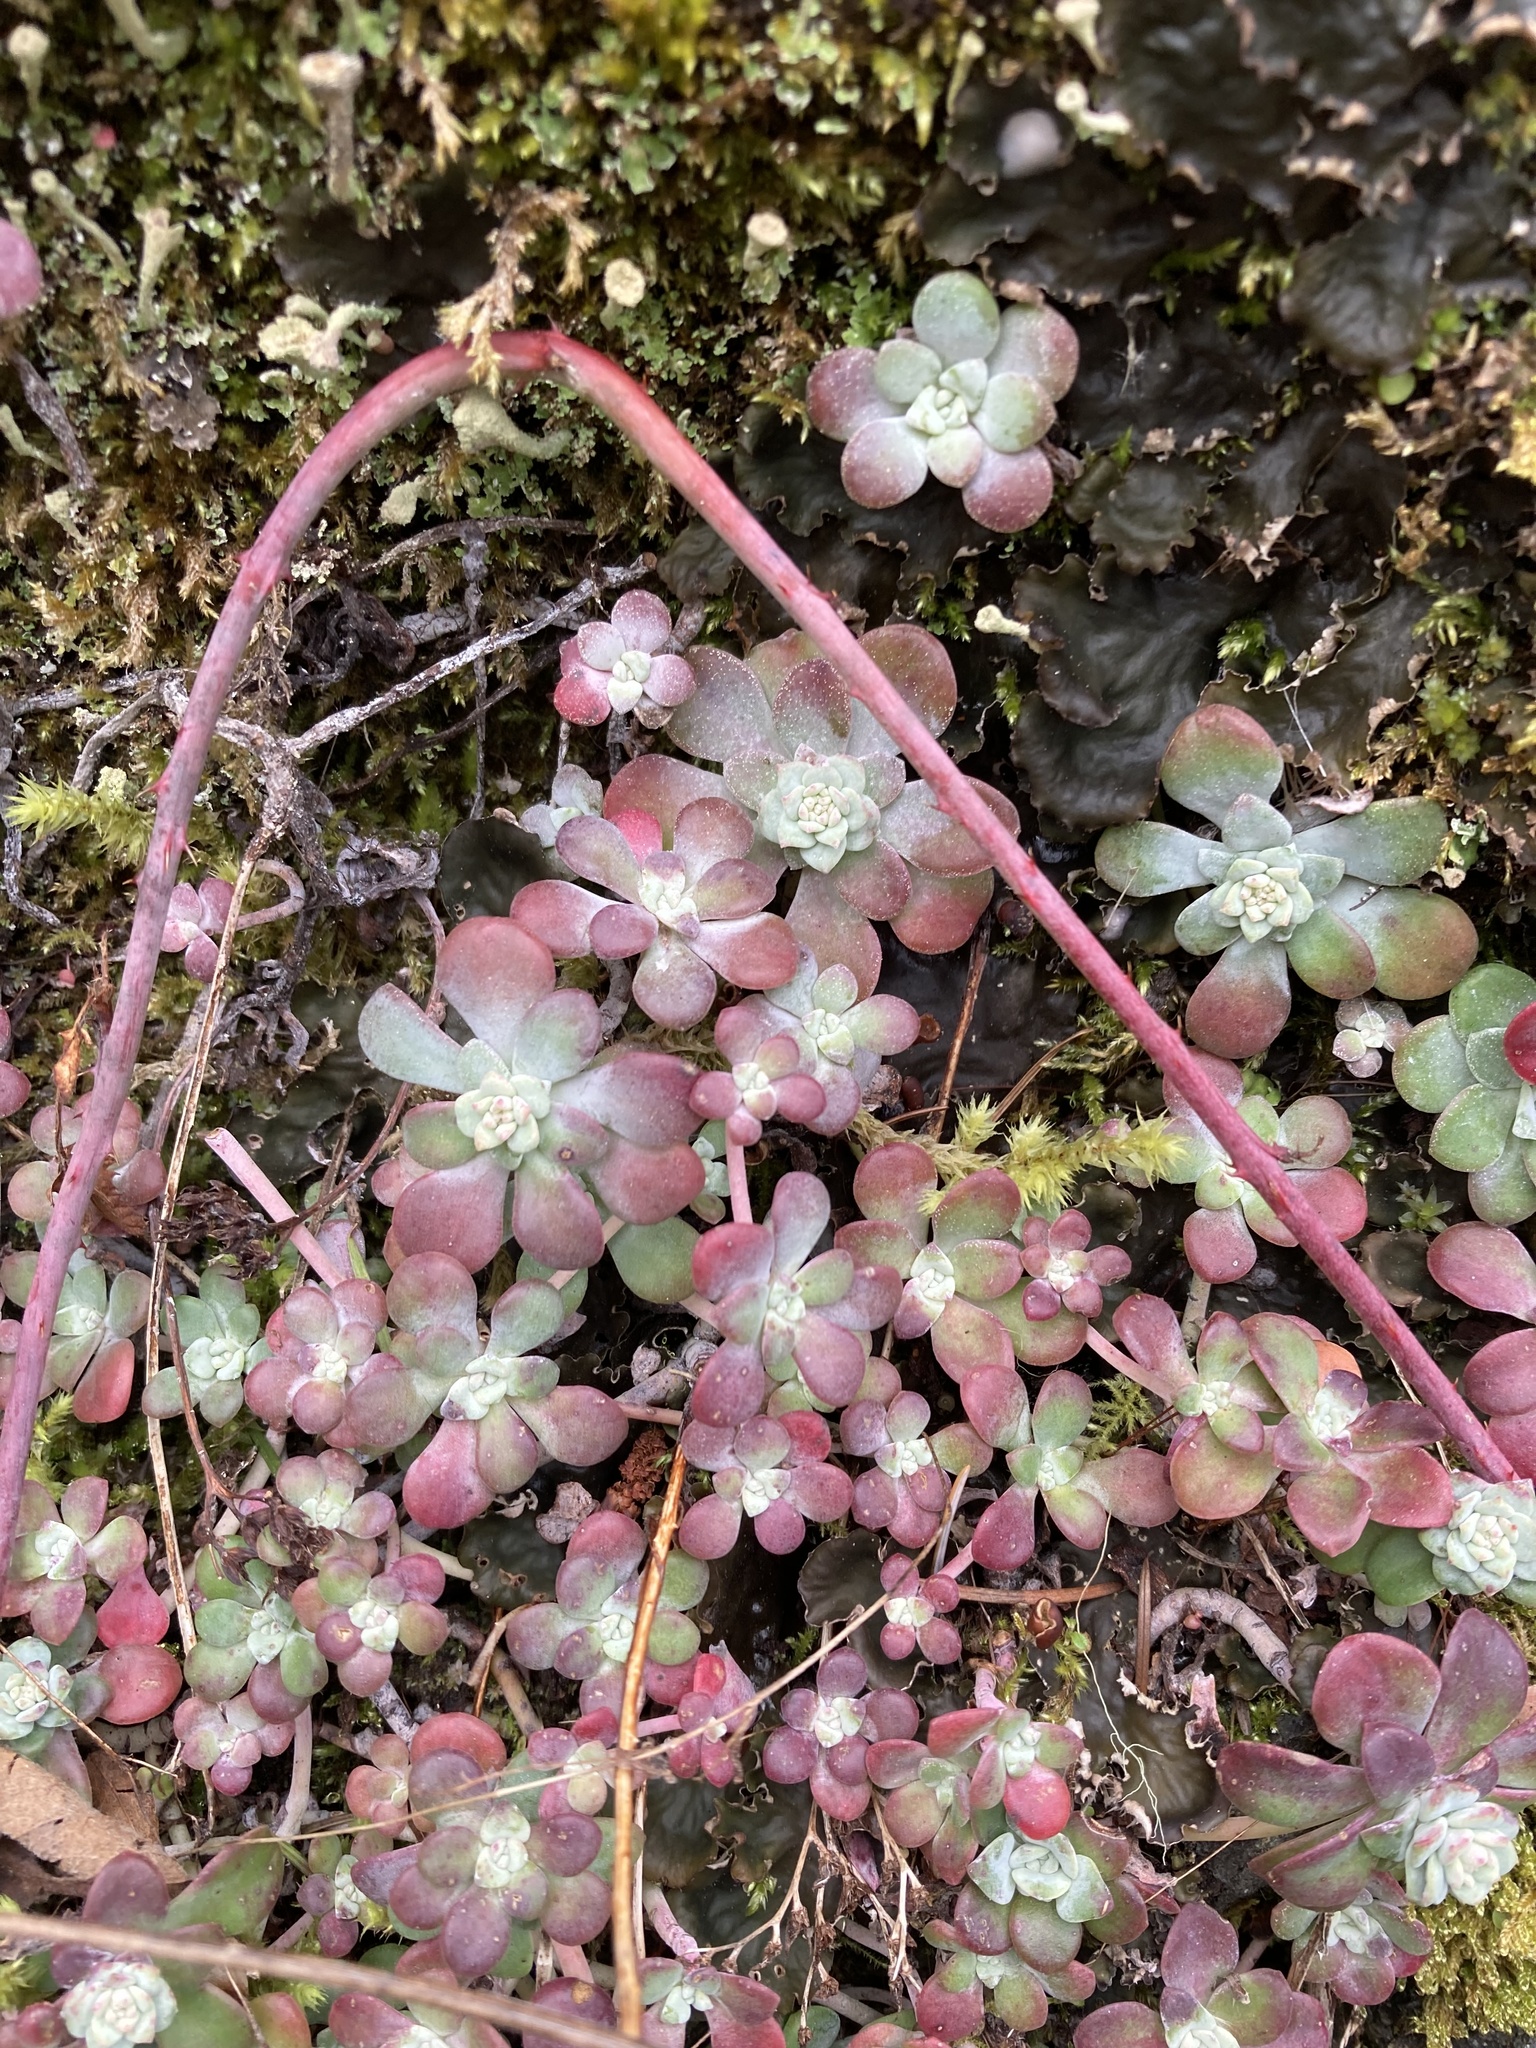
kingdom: Plantae
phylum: Tracheophyta
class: Magnoliopsida
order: Saxifragales
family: Crassulaceae
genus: Sedum
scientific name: Sedum spathulifolium
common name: Colorado stonecrop
